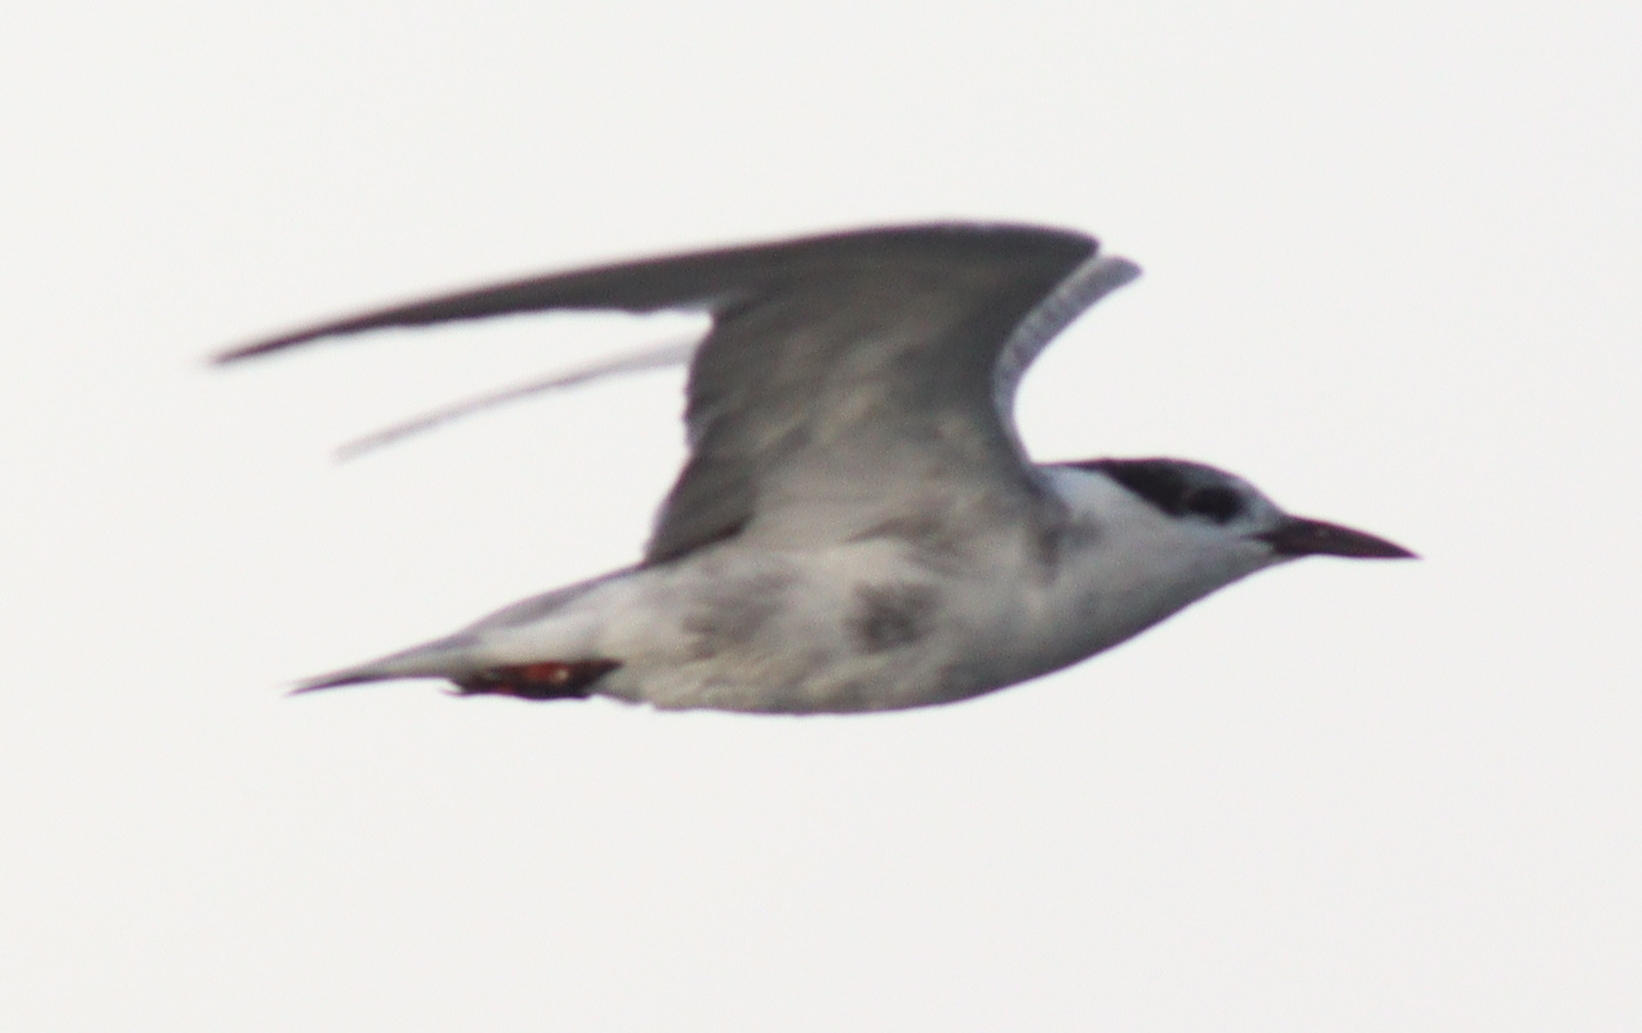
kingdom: Animalia
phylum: Chordata
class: Aves
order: Charadriiformes
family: Laridae
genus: Chlidonias
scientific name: Chlidonias hybrida
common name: Whiskered tern
